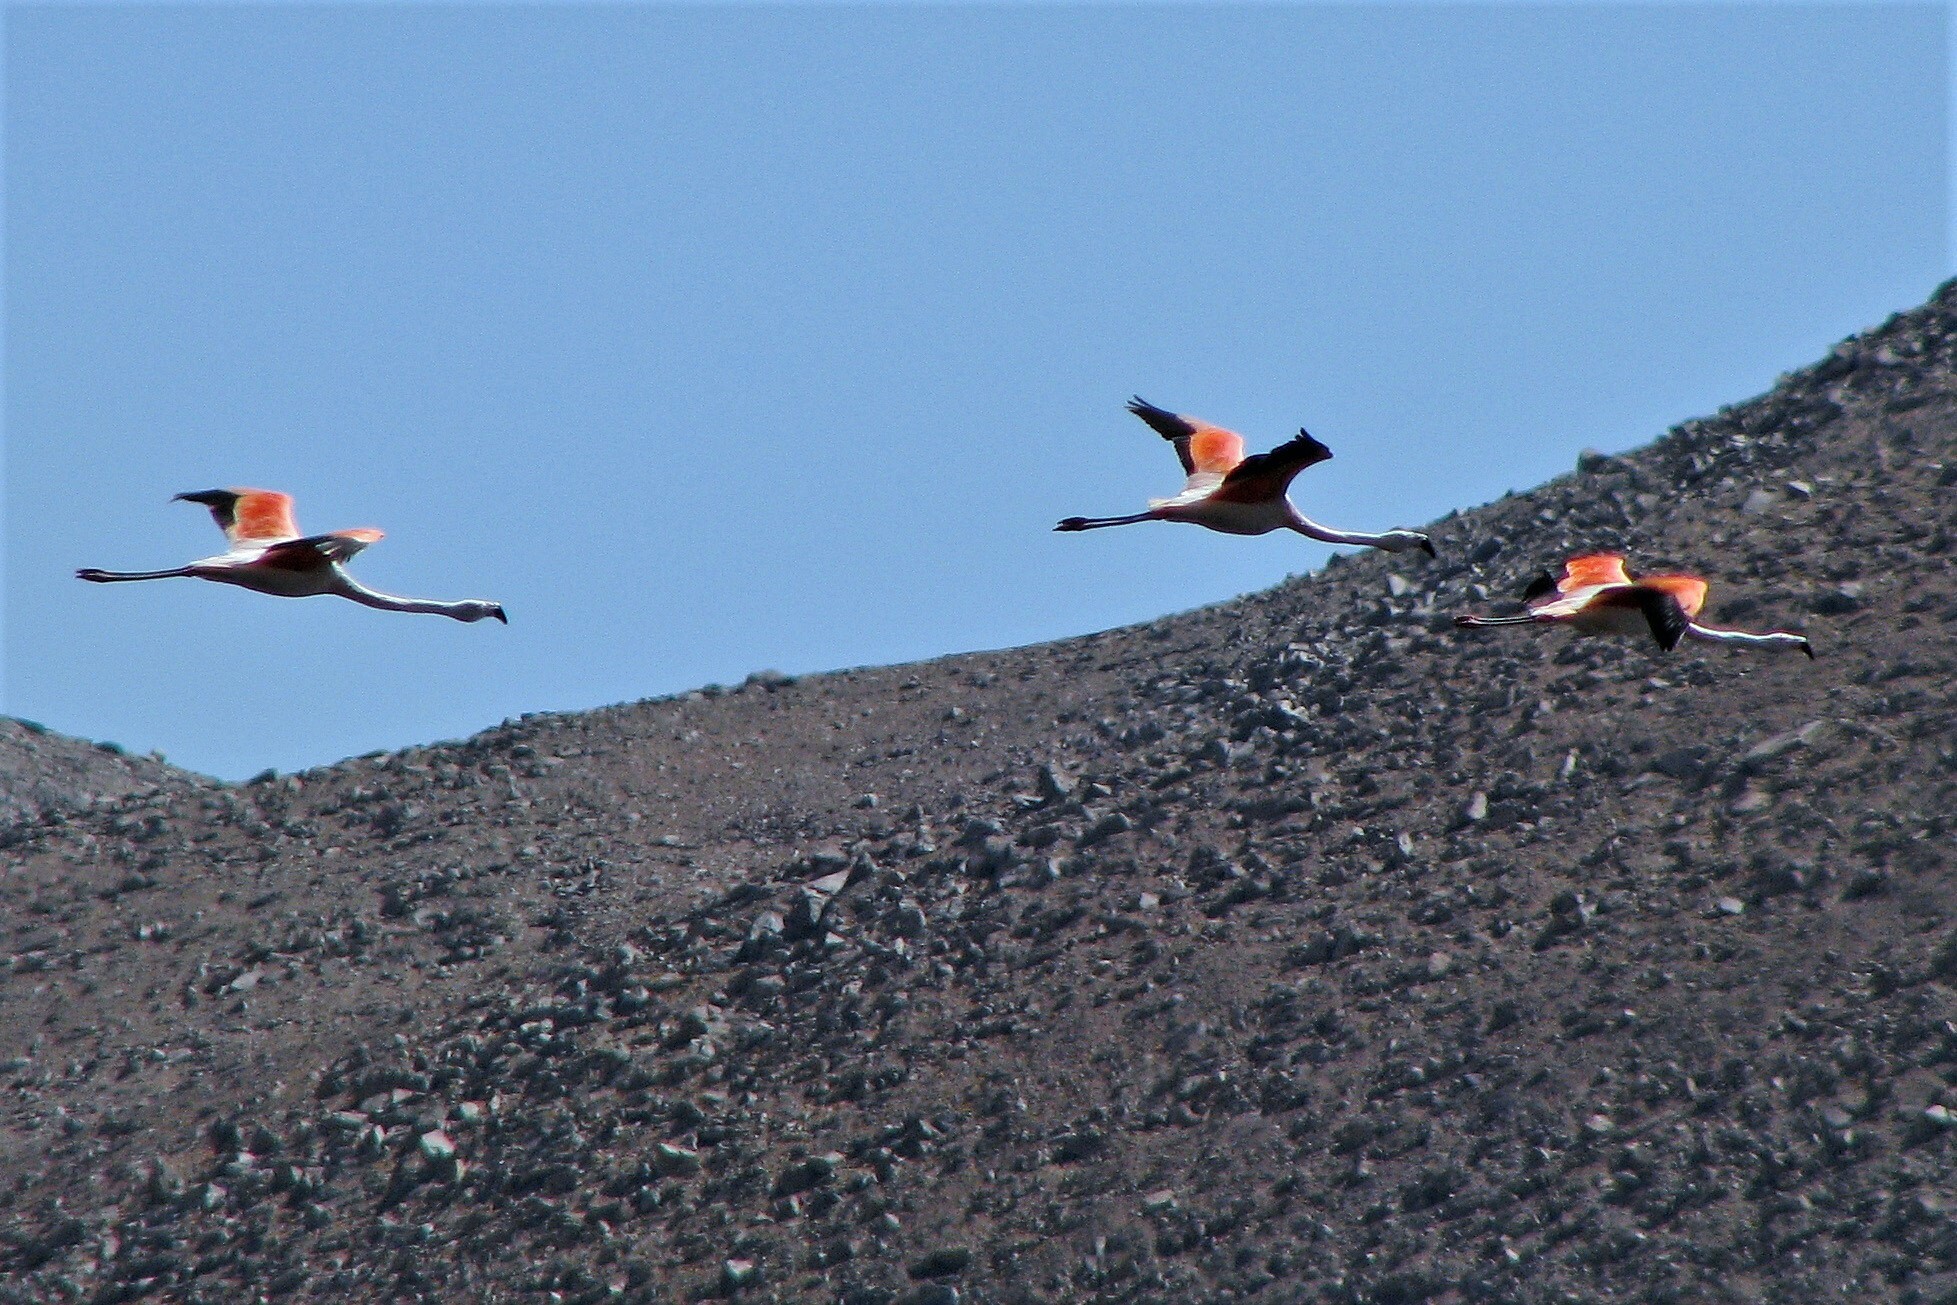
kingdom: Animalia
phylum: Chordata
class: Aves
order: Phoenicopteriformes
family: Phoenicopteridae
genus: Phoenicopterus
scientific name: Phoenicopterus chilensis
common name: Chilean flamingo
